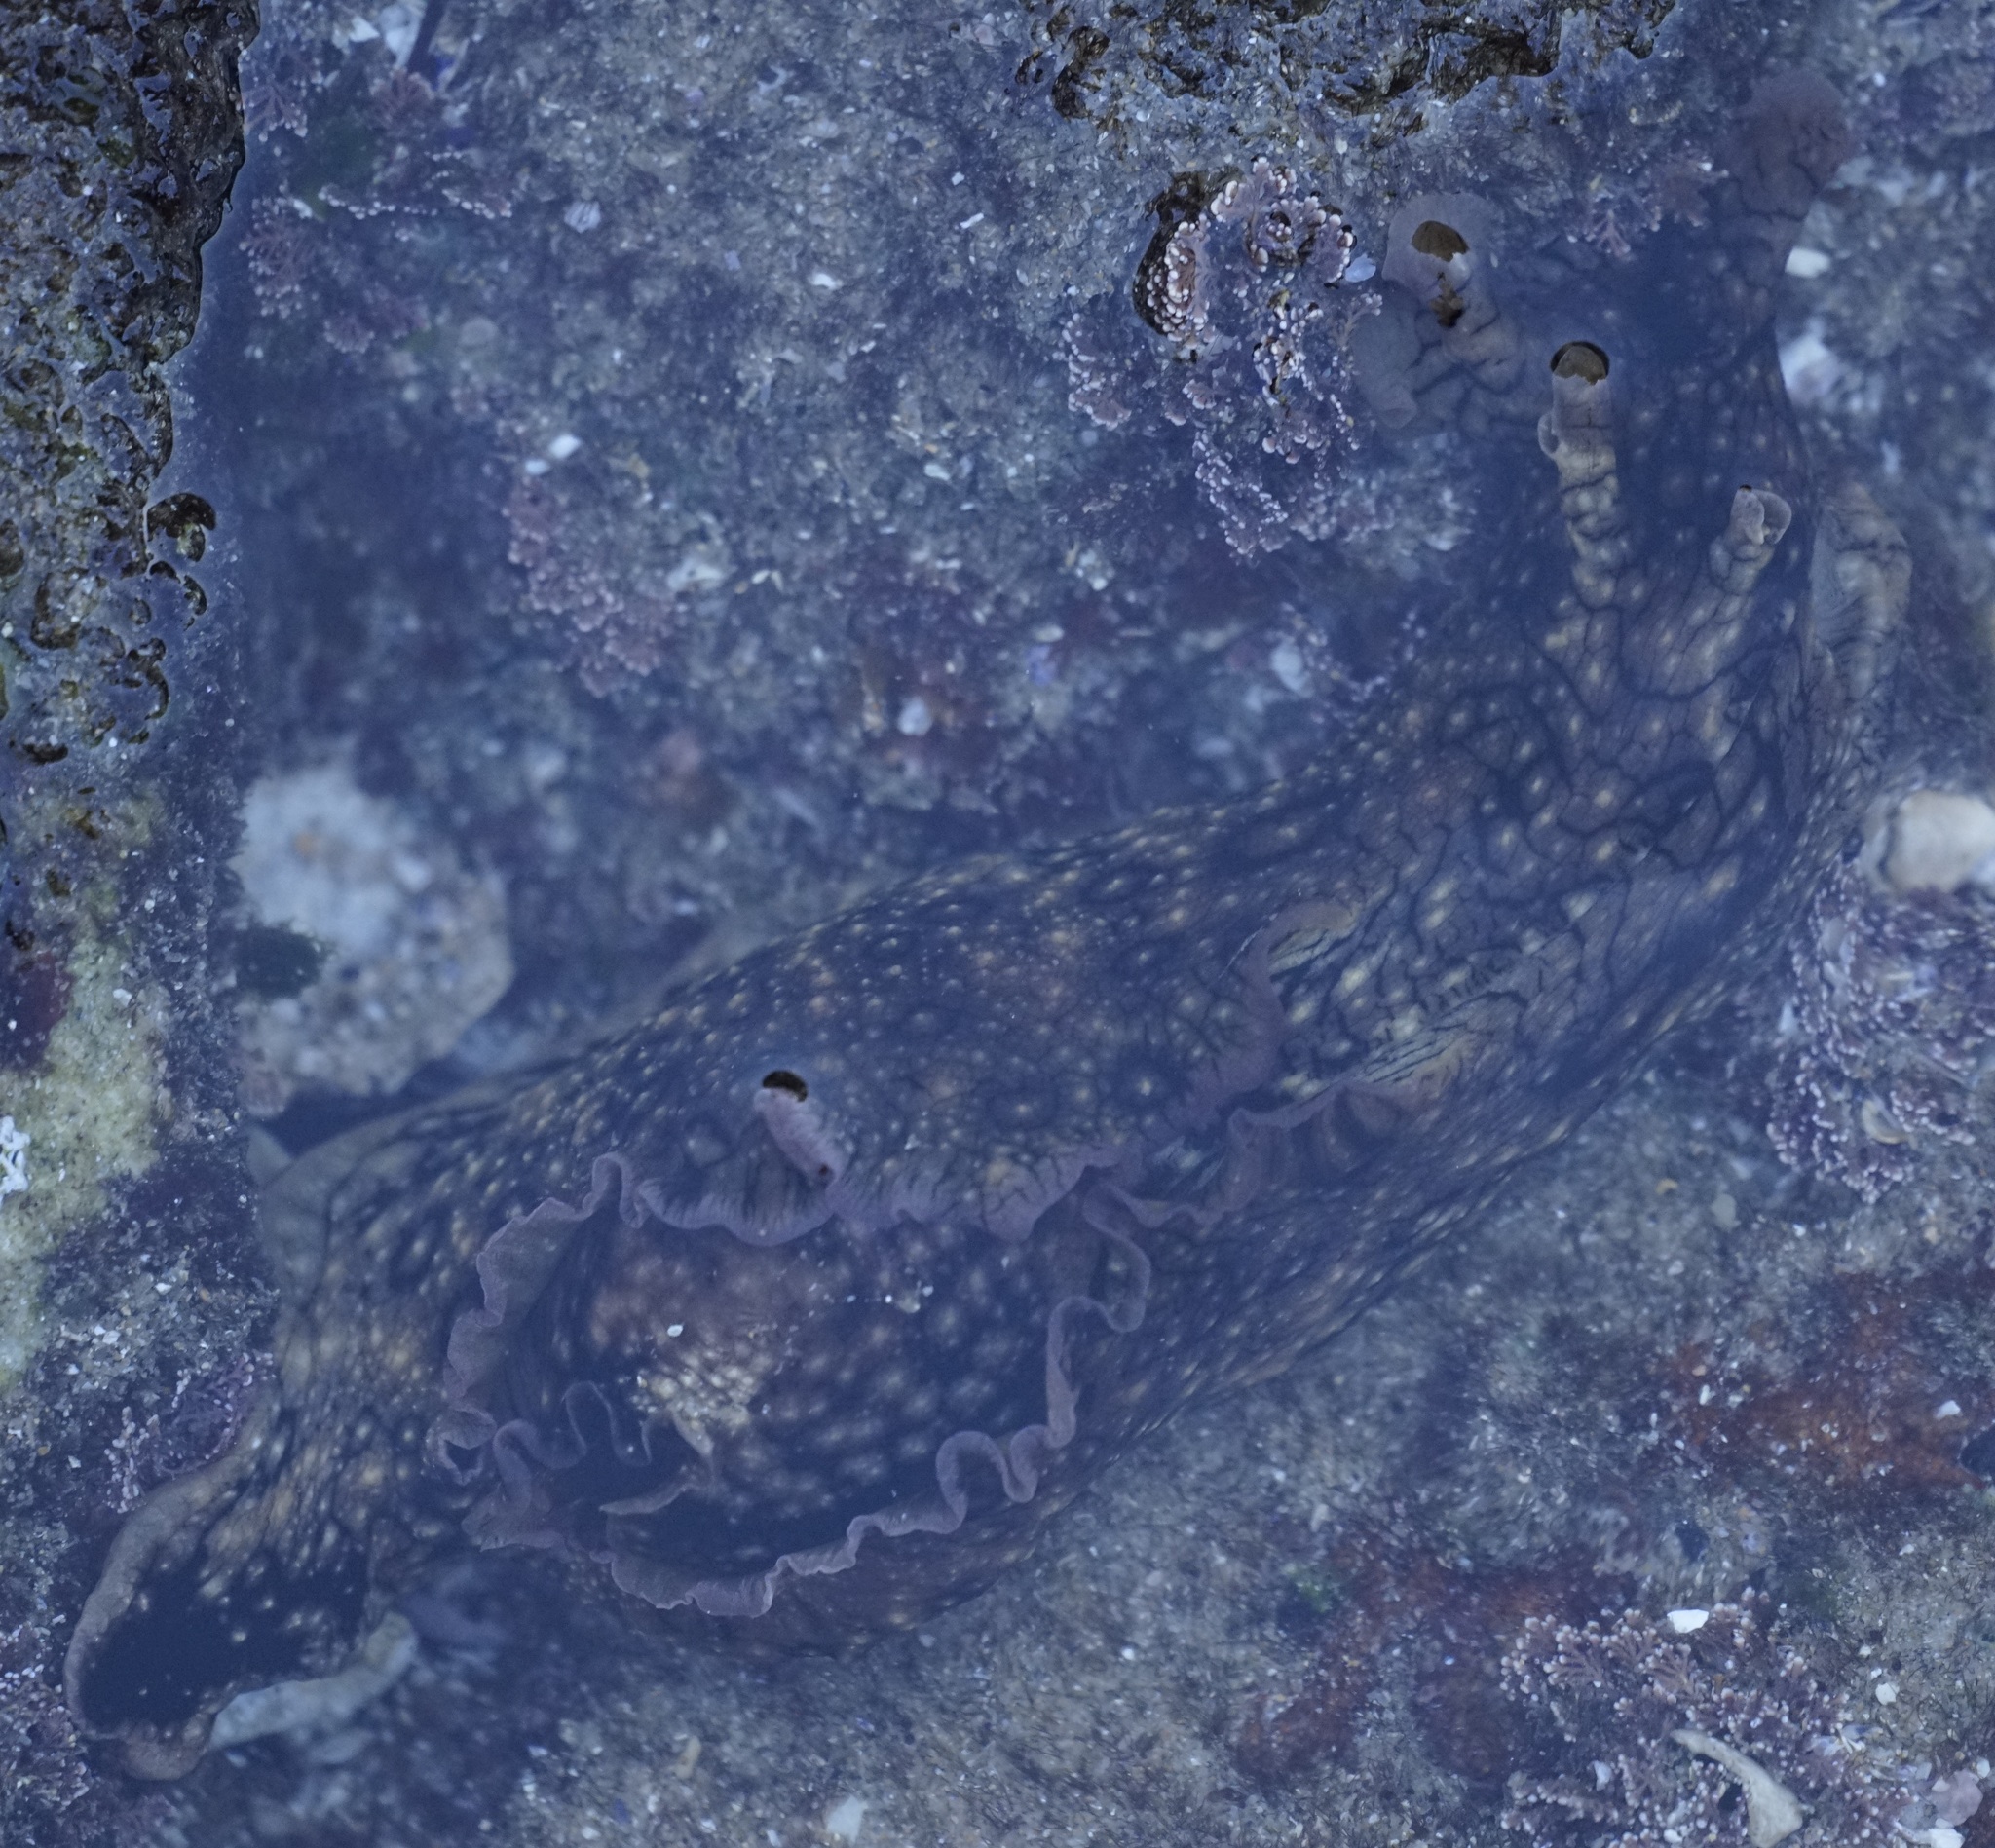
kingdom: Animalia
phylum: Mollusca
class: Gastropoda
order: Aplysiida
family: Aplysiidae
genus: Aplysia
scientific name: Aplysia argus
